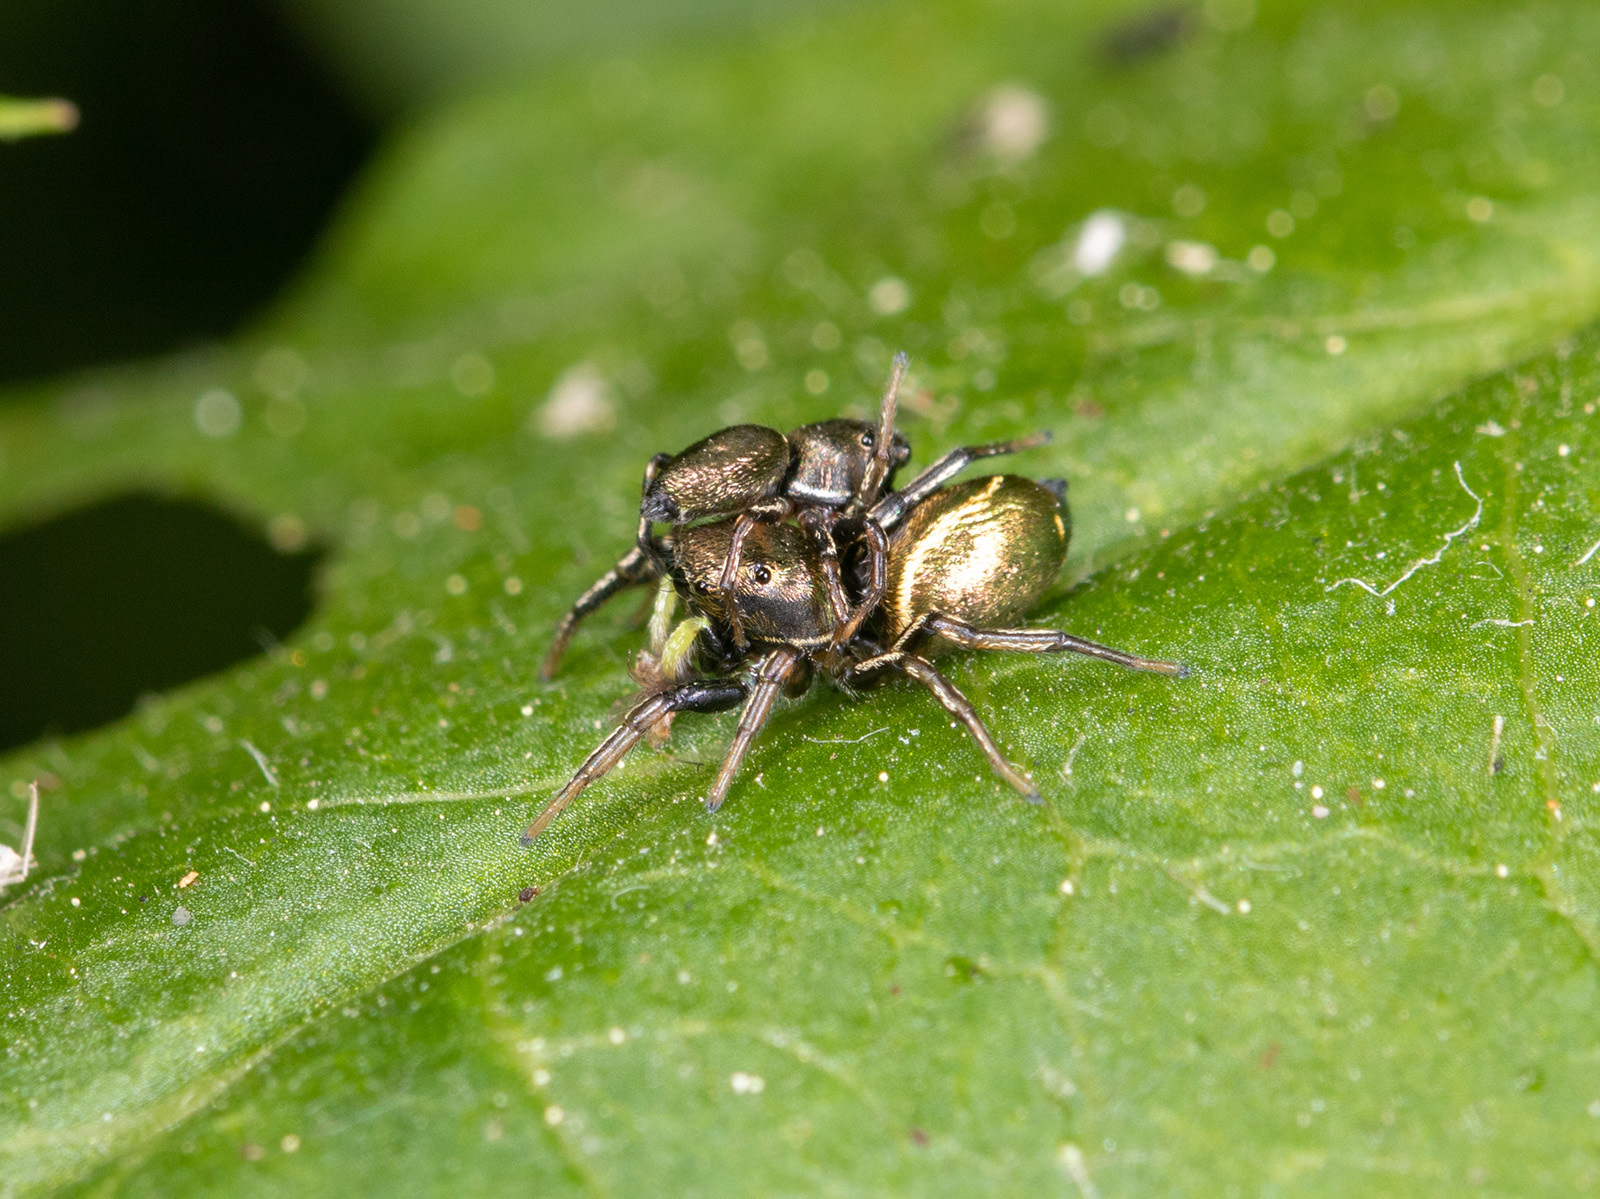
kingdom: Animalia
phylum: Arthropoda
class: Arachnida
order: Araneae
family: Salticidae
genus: Heliophanus
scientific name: Heliophanus auratus
